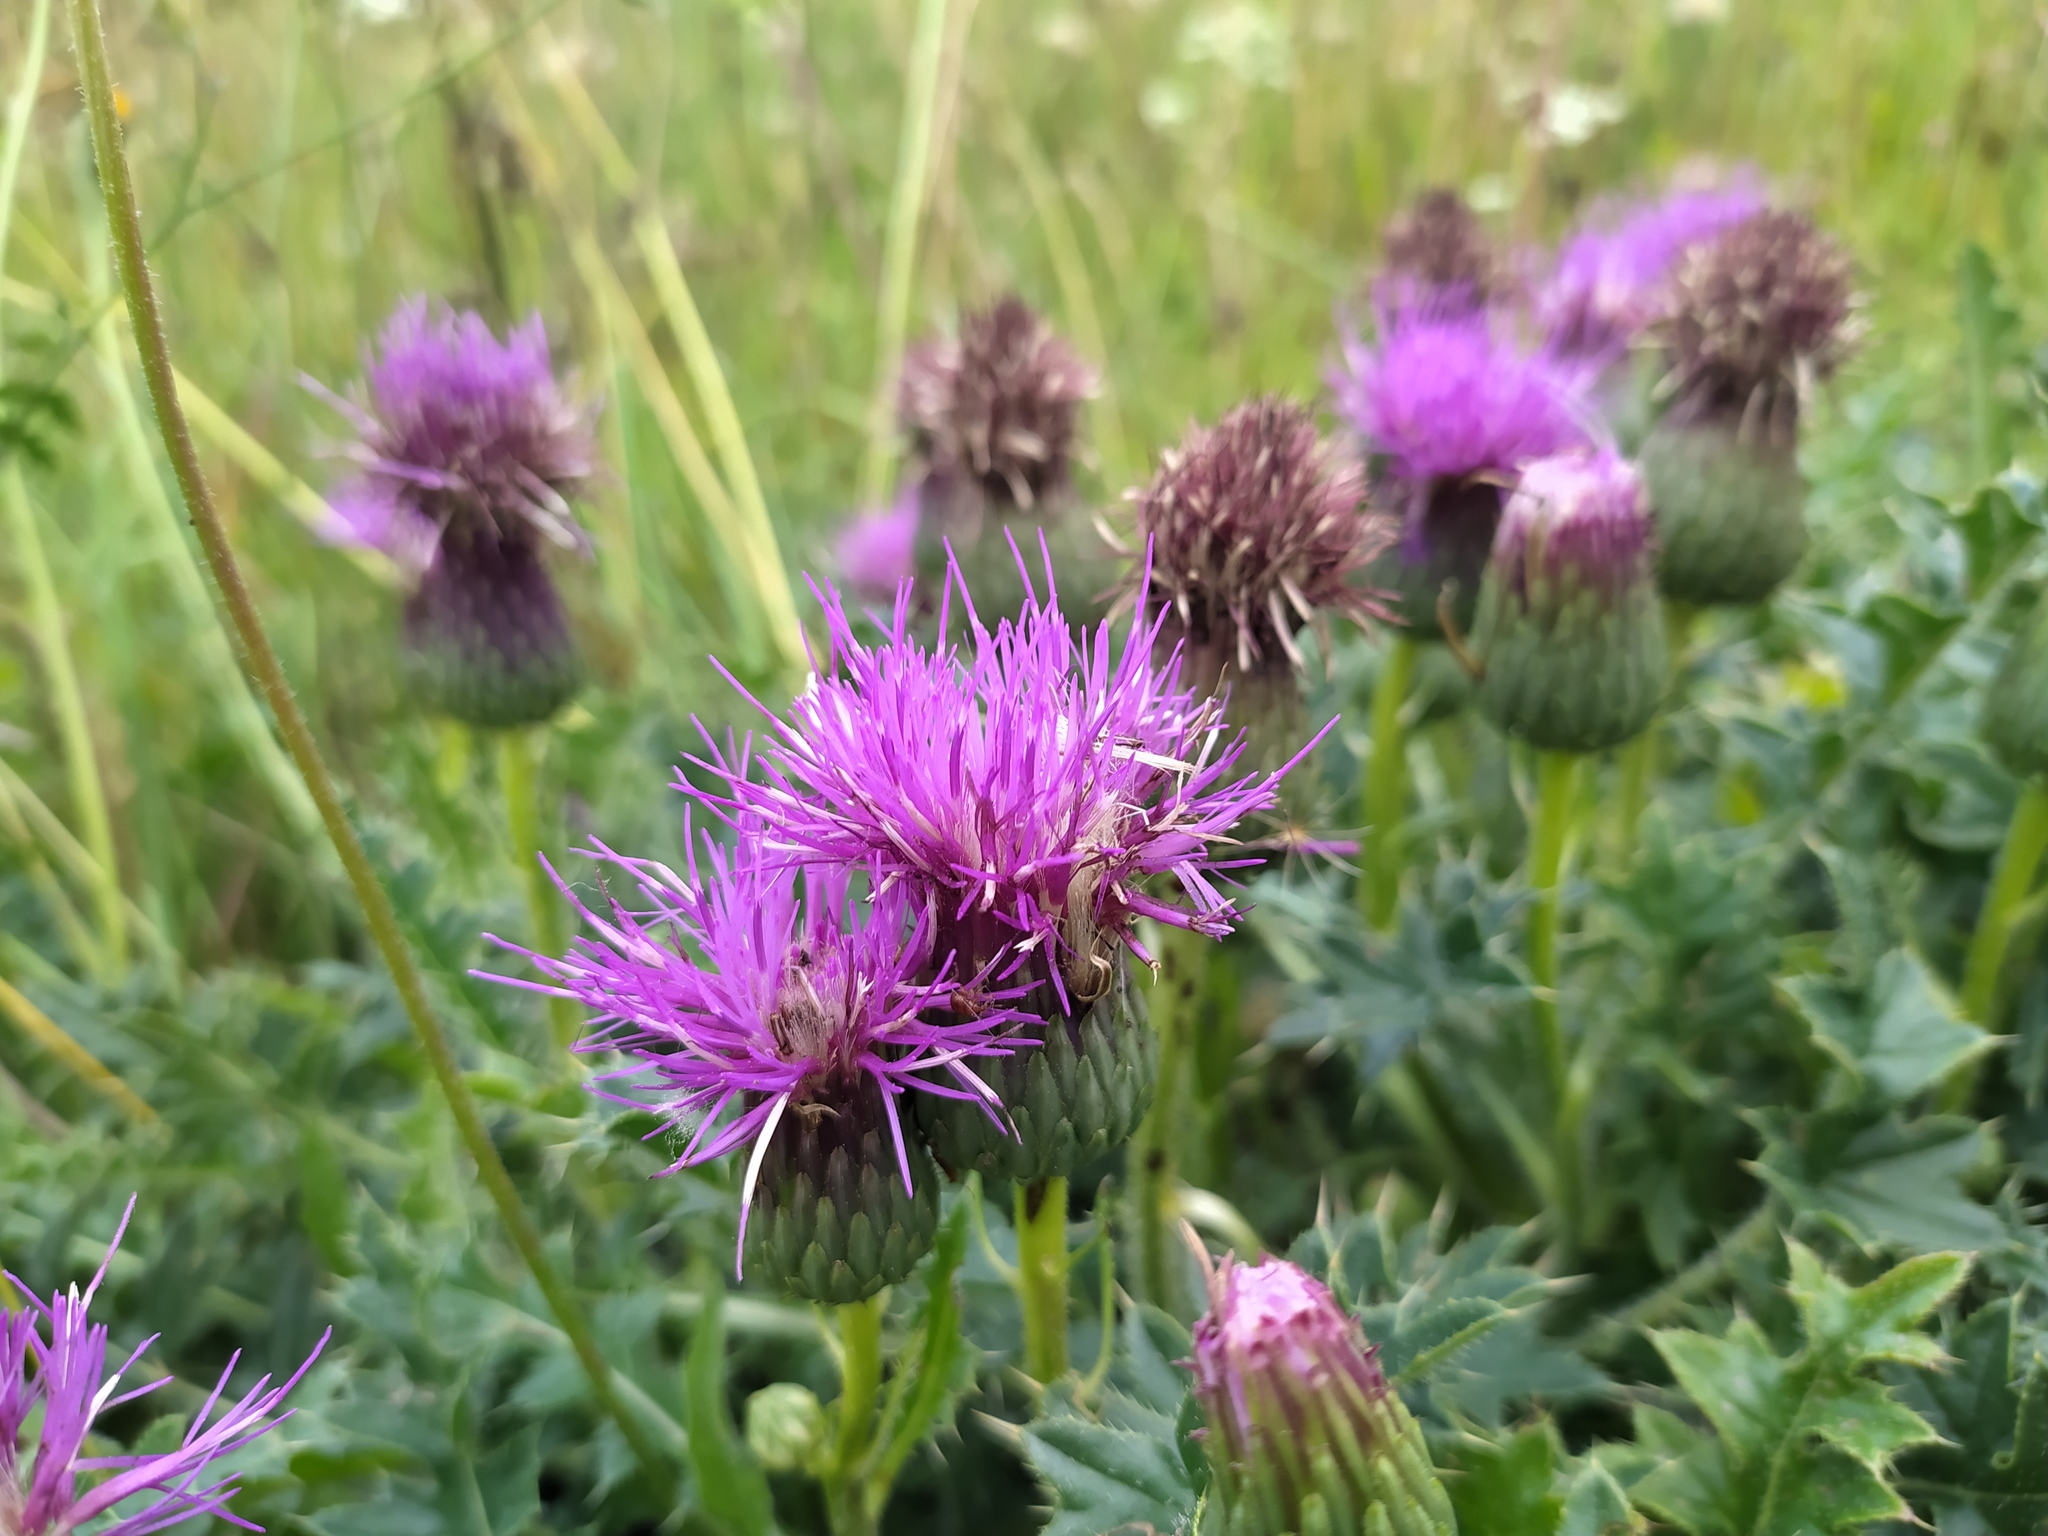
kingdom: Plantae
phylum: Tracheophyta
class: Magnoliopsida
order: Asterales
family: Asteraceae
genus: Cirsium
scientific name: Cirsium acaulon
